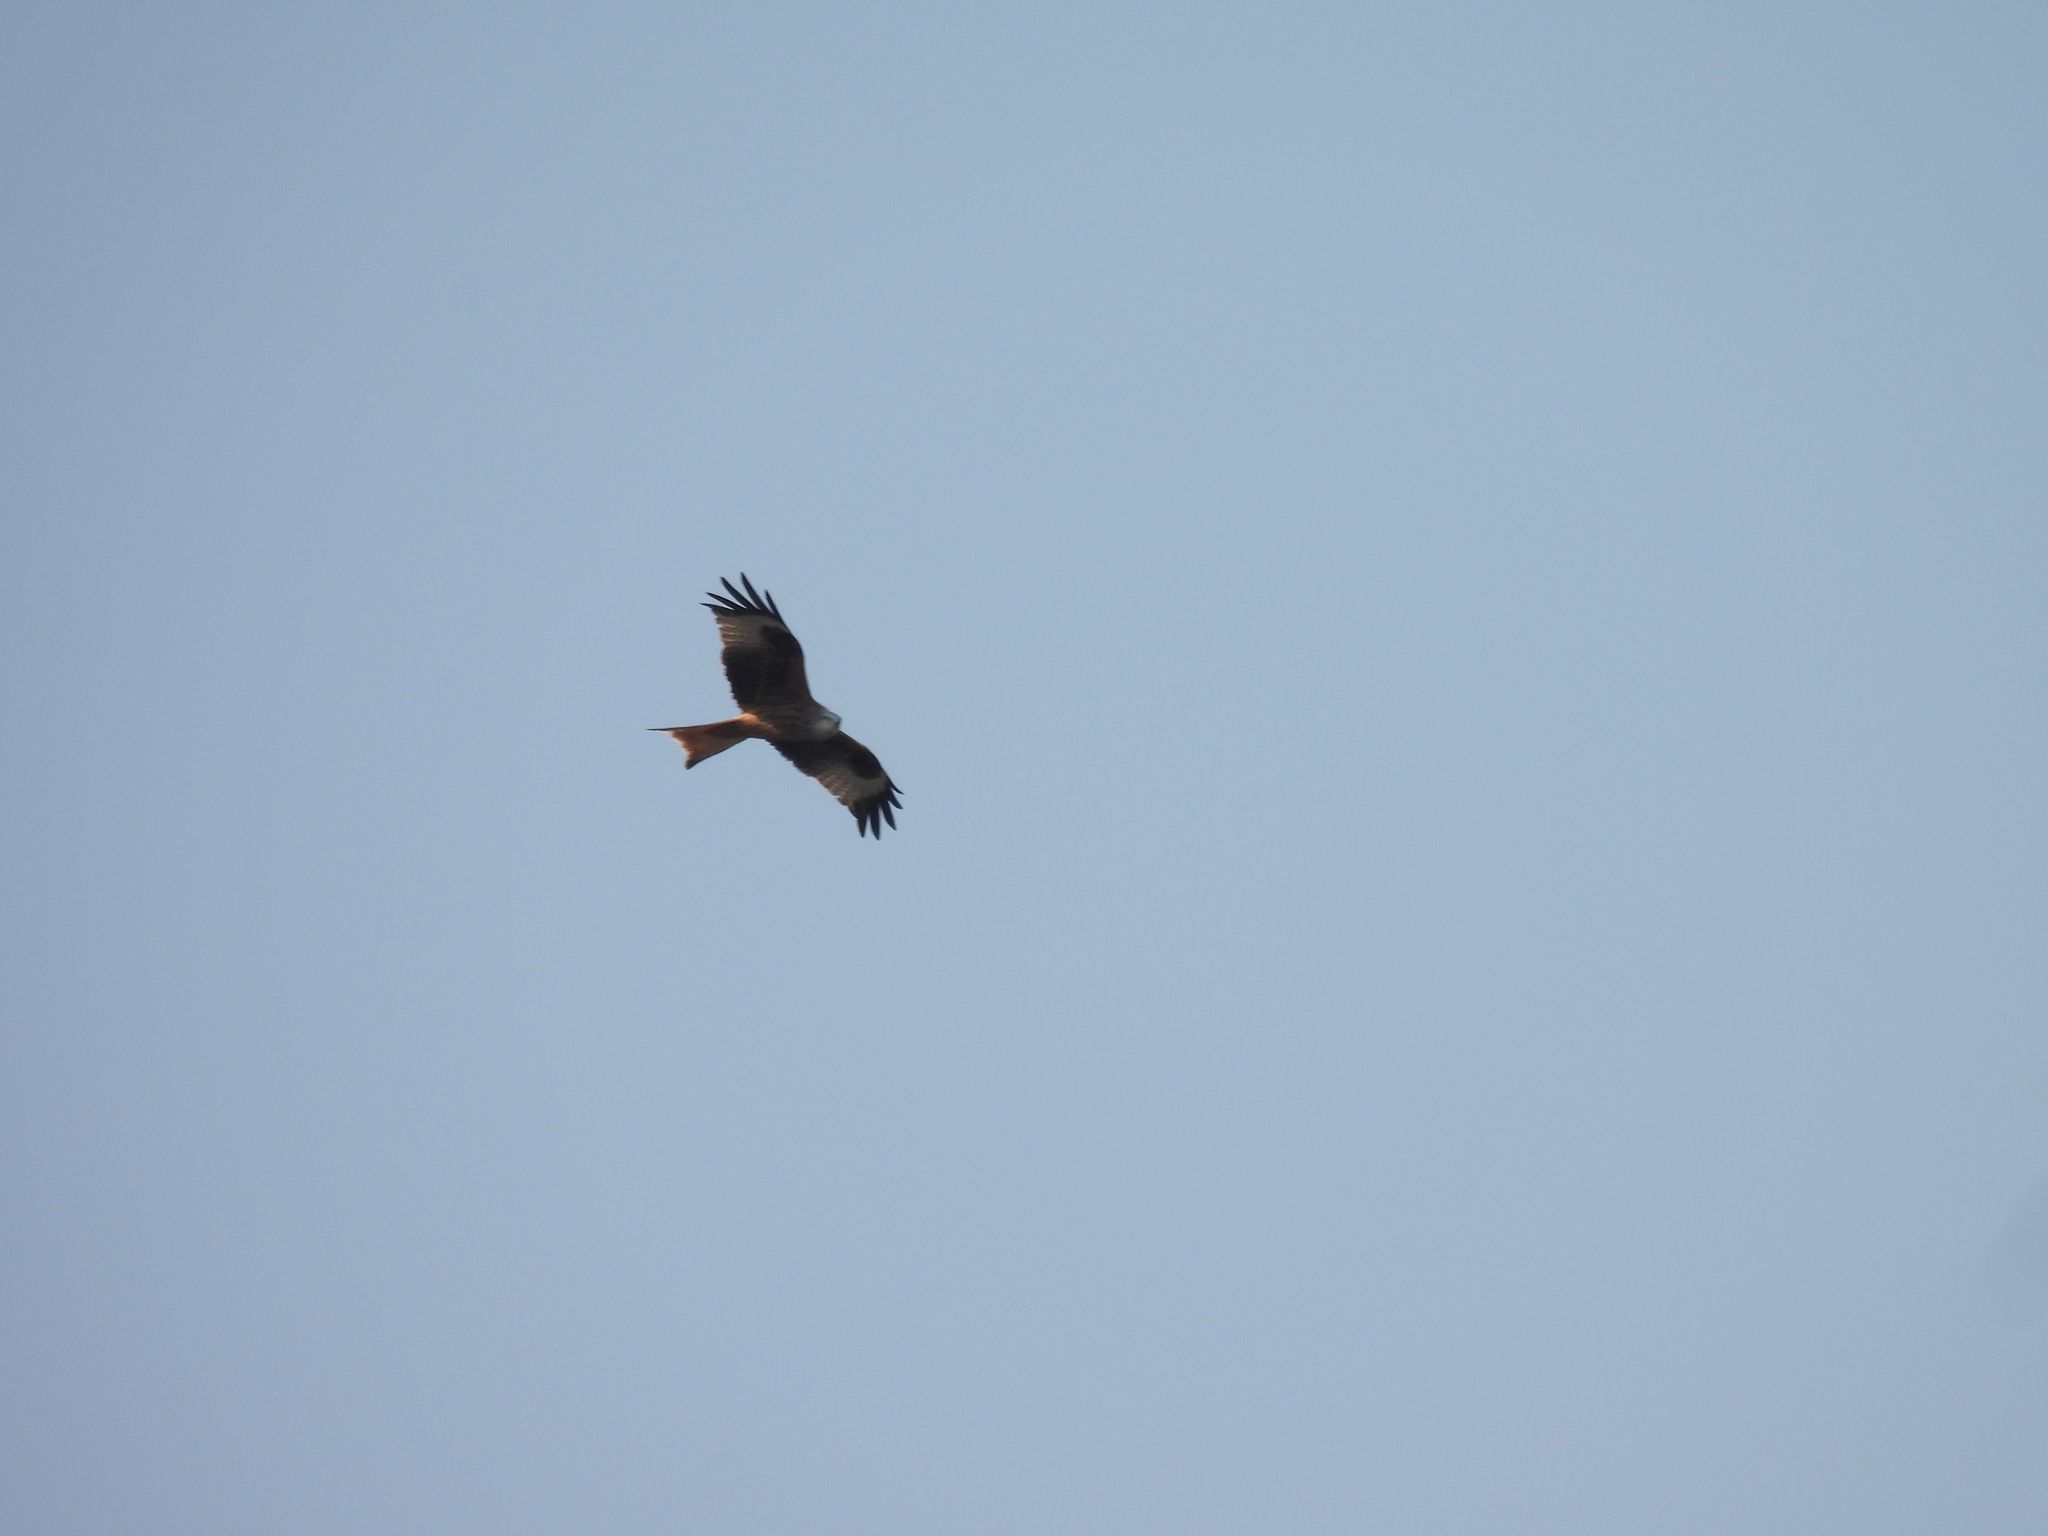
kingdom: Animalia
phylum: Chordata
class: Aves
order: Accipitriformes
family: Accipitridae
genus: Milvus
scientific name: Milvus milvus
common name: Red kite
